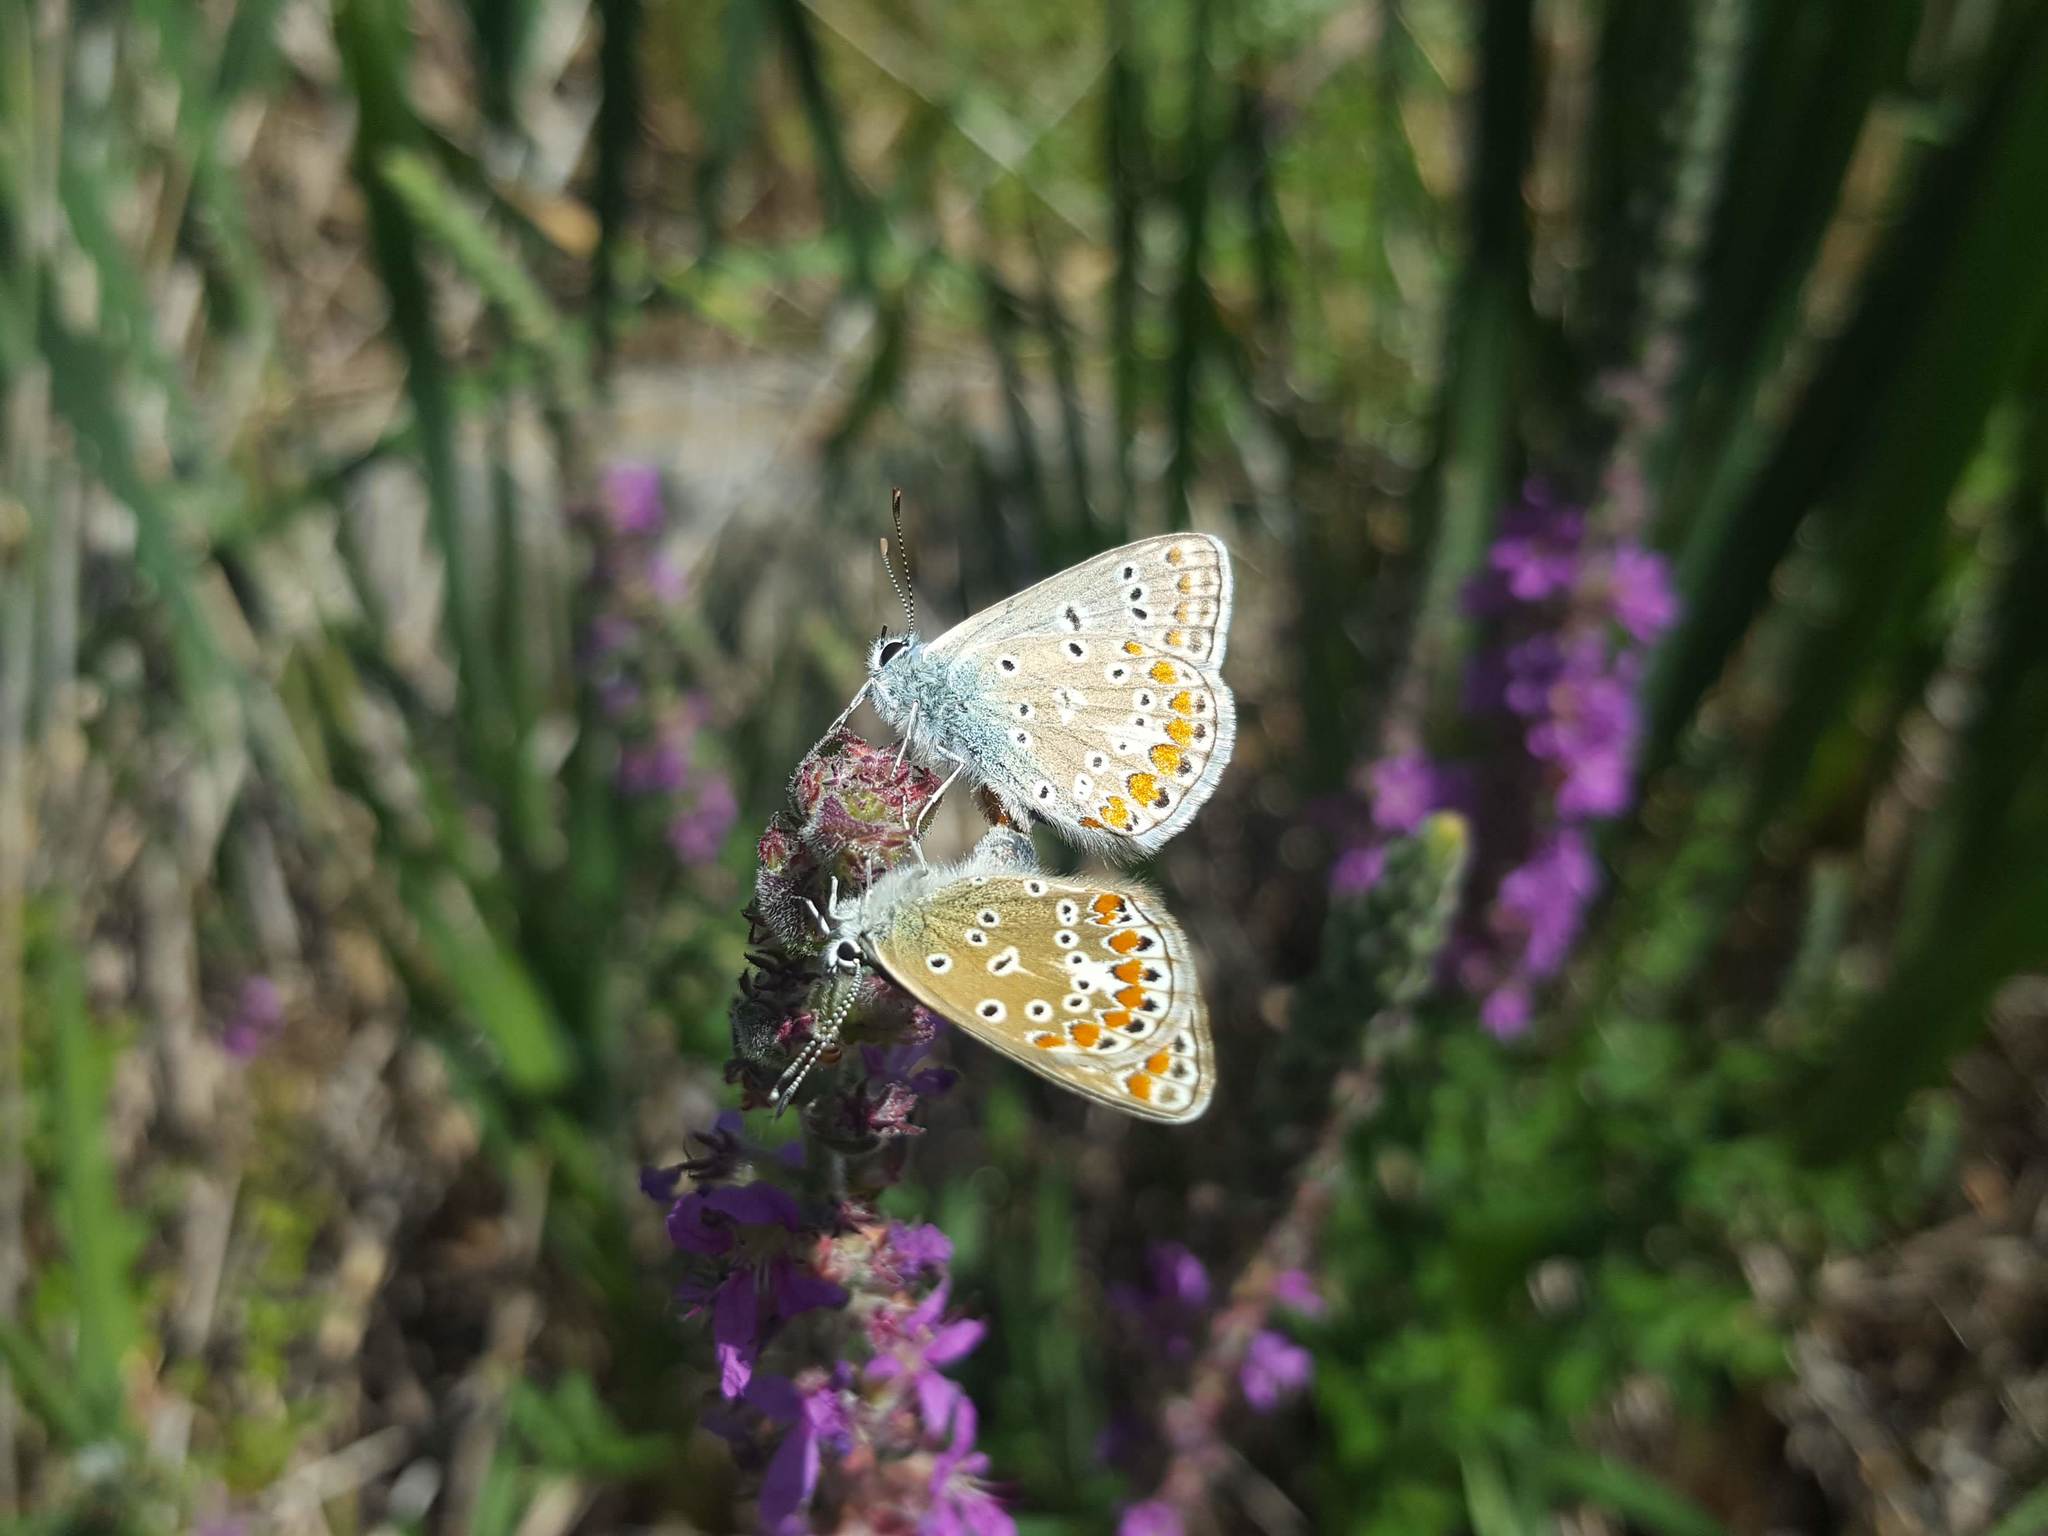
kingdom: Animalia
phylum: Arthropoda
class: Insecta
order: Lepidoptera
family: Lycaenidae
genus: Polyommatus
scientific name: Polyommatus icarus
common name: Common blue
